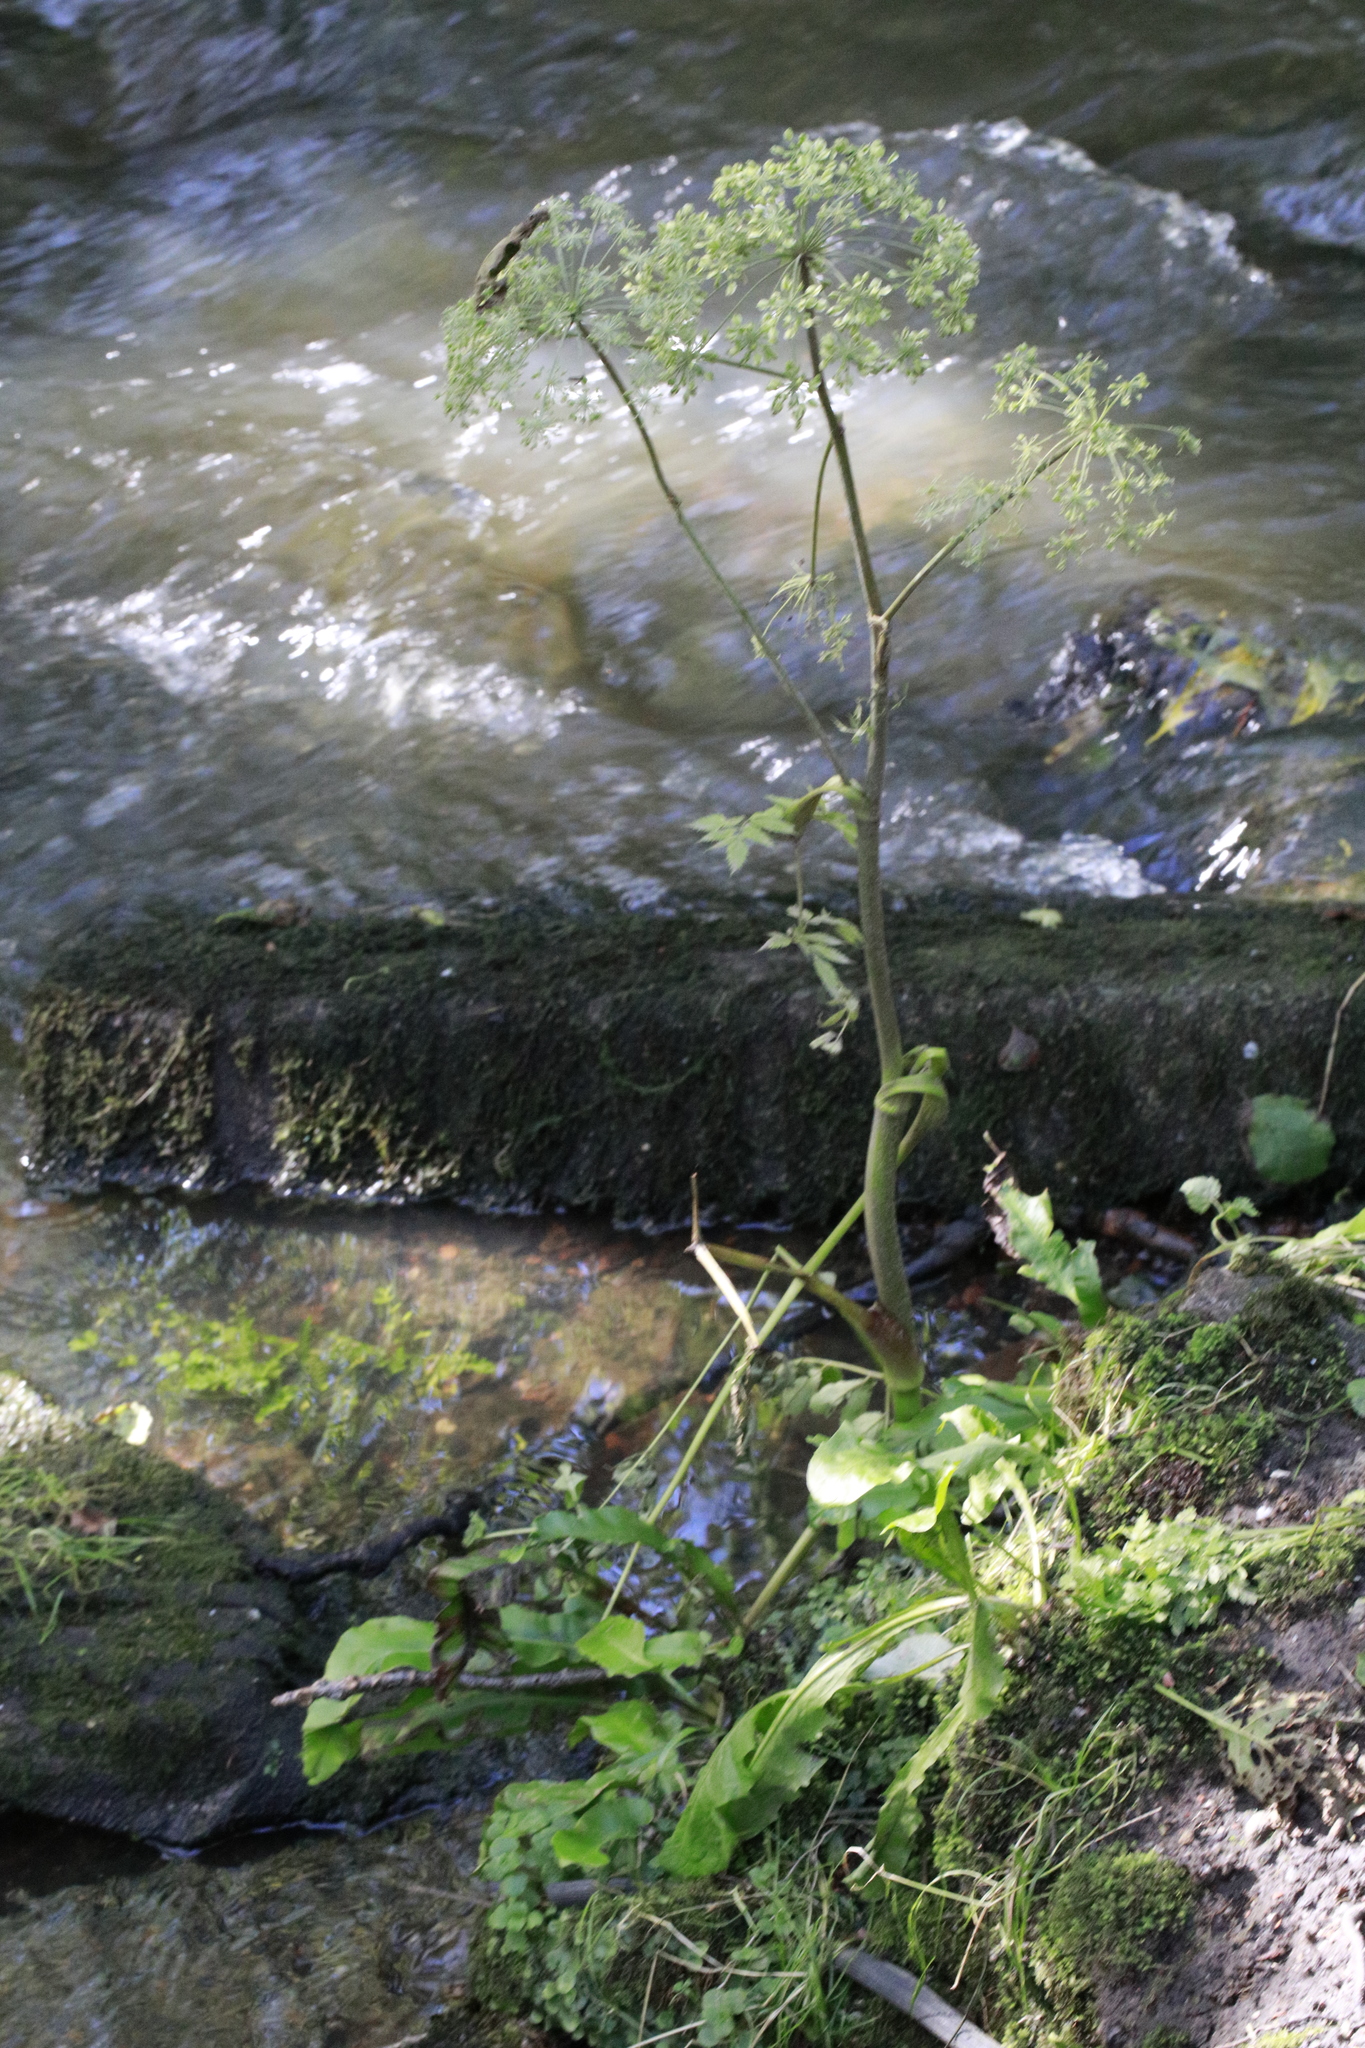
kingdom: Plantae
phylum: Tracheophyta
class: Magnoliopsida
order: Apiales
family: Apiaceae
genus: Angelica
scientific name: Angelica sylvestris
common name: Wild angelica
